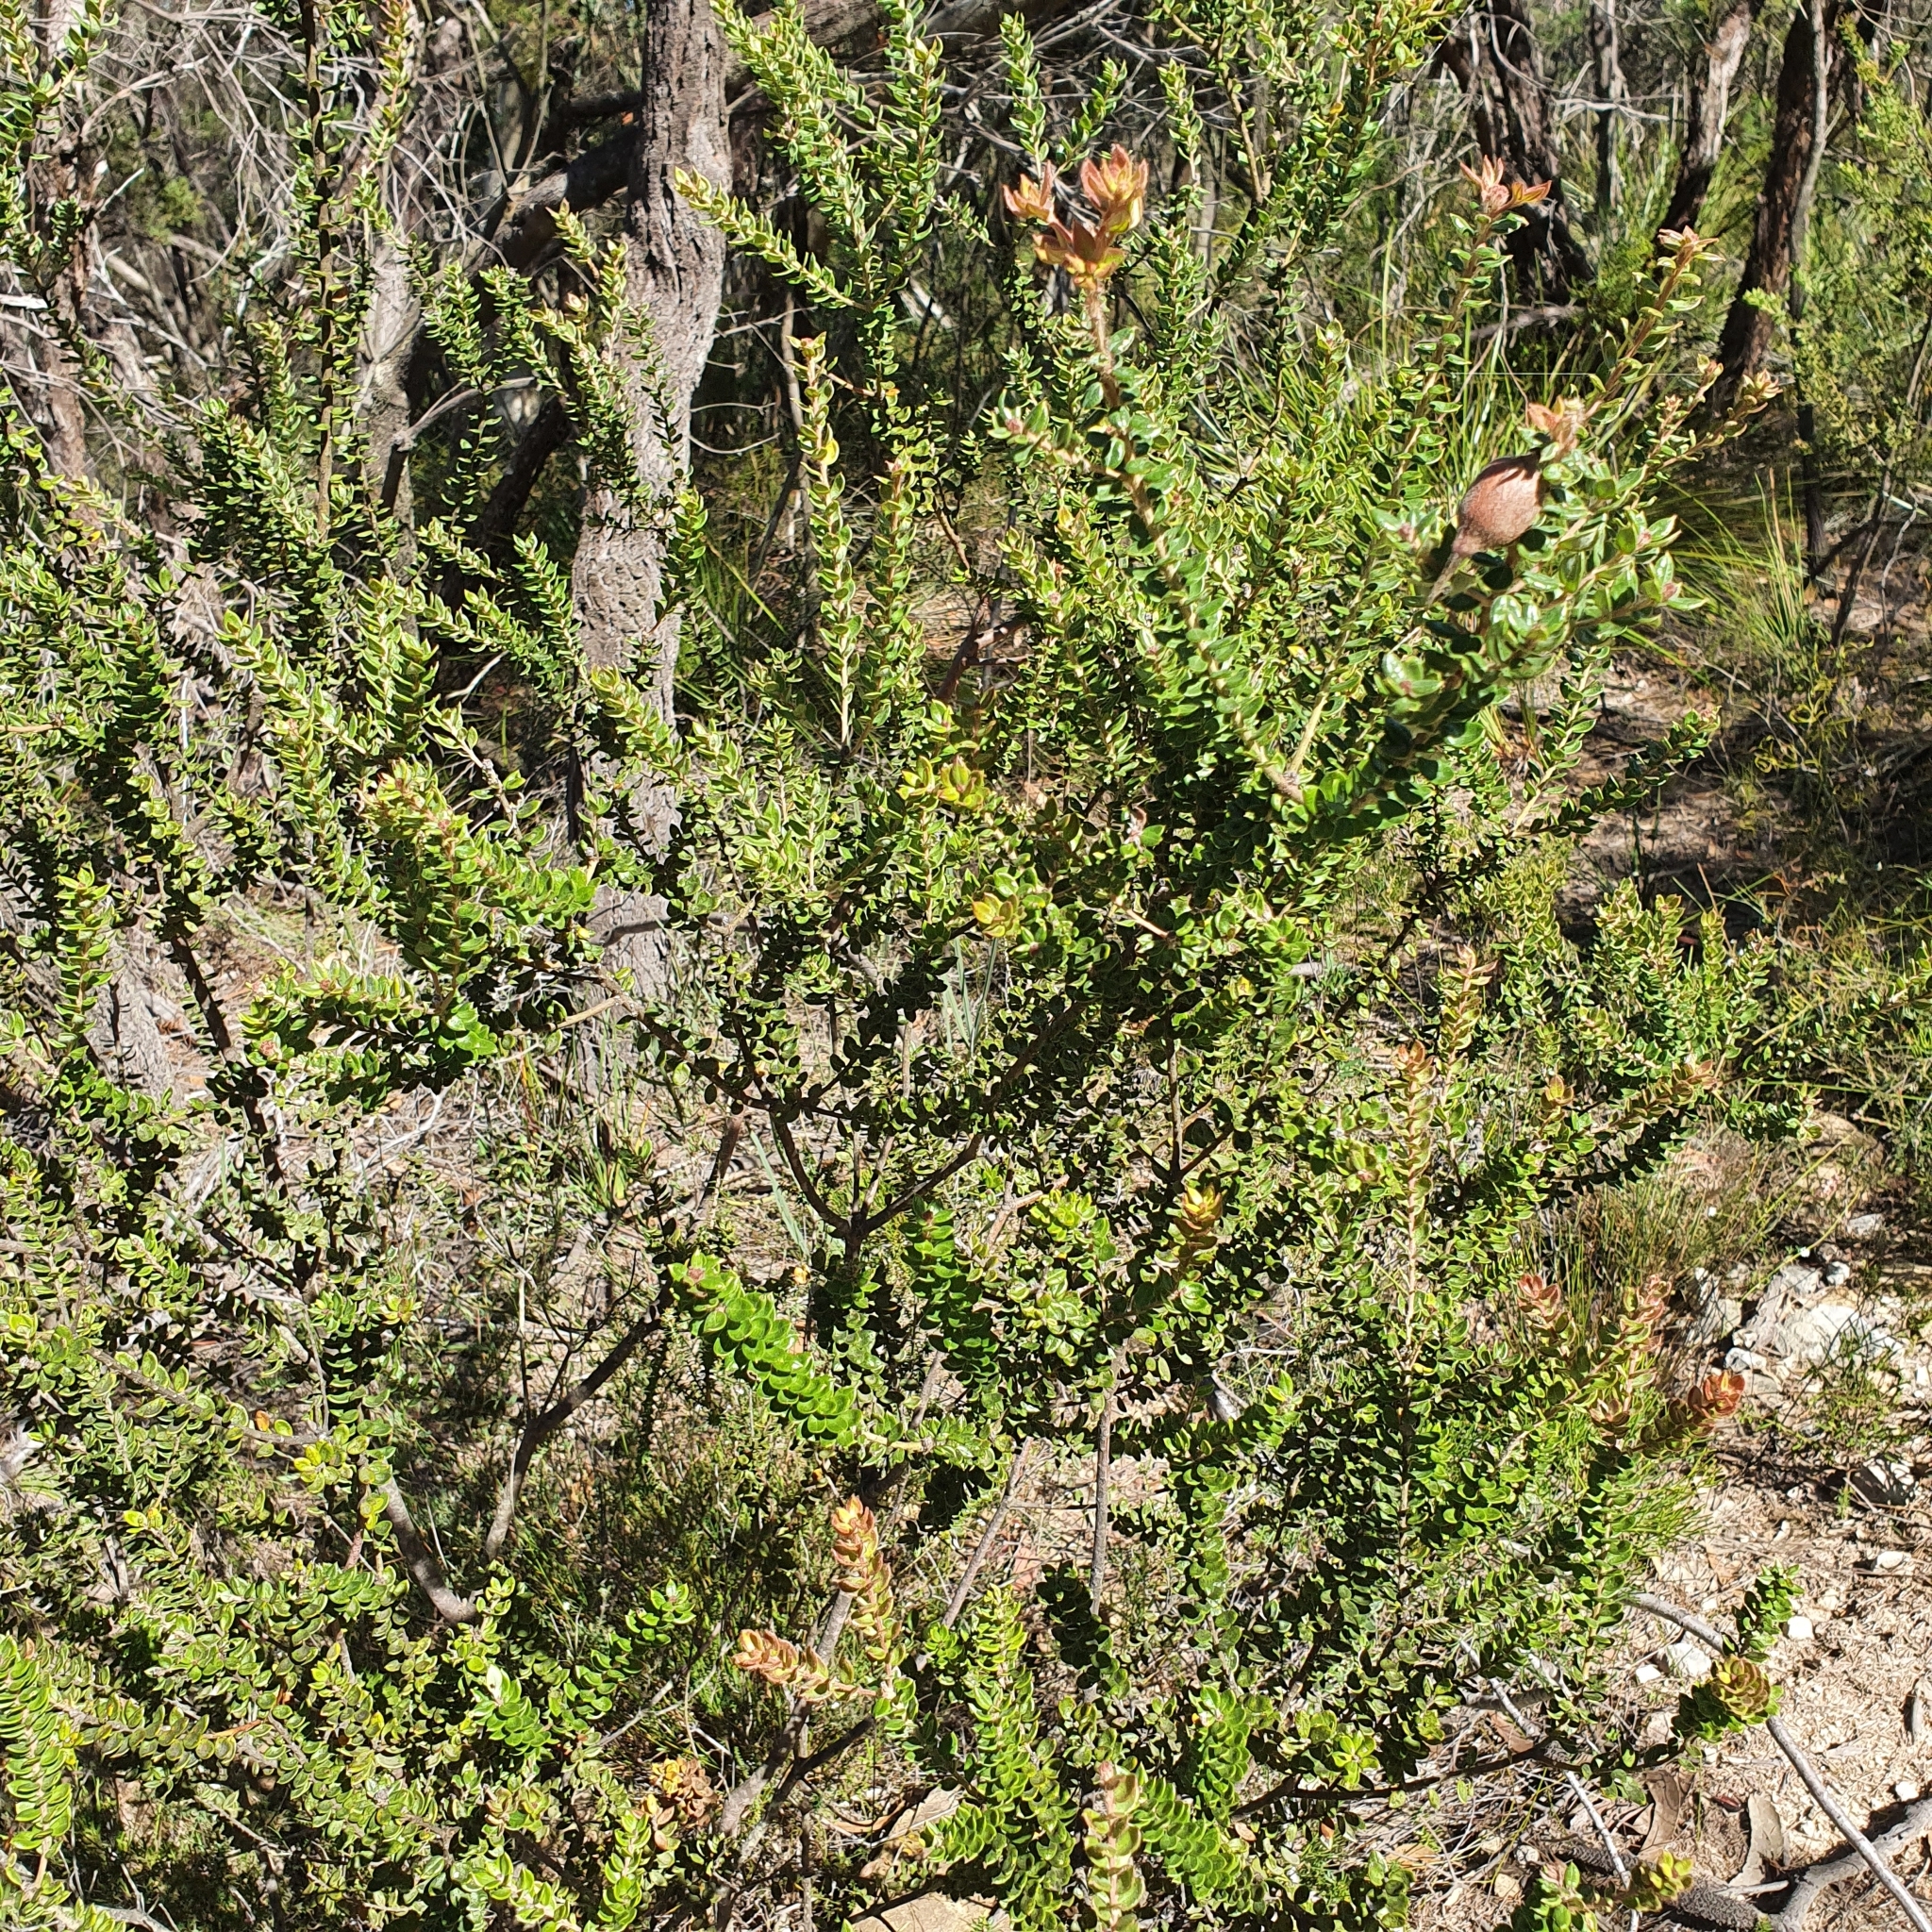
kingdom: Plantae
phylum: Tracheophyta
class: Magnoliopsida
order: Proteales
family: Proteaceae
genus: Grevillea
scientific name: Grevillea buxifolia
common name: Grey spiderflower
